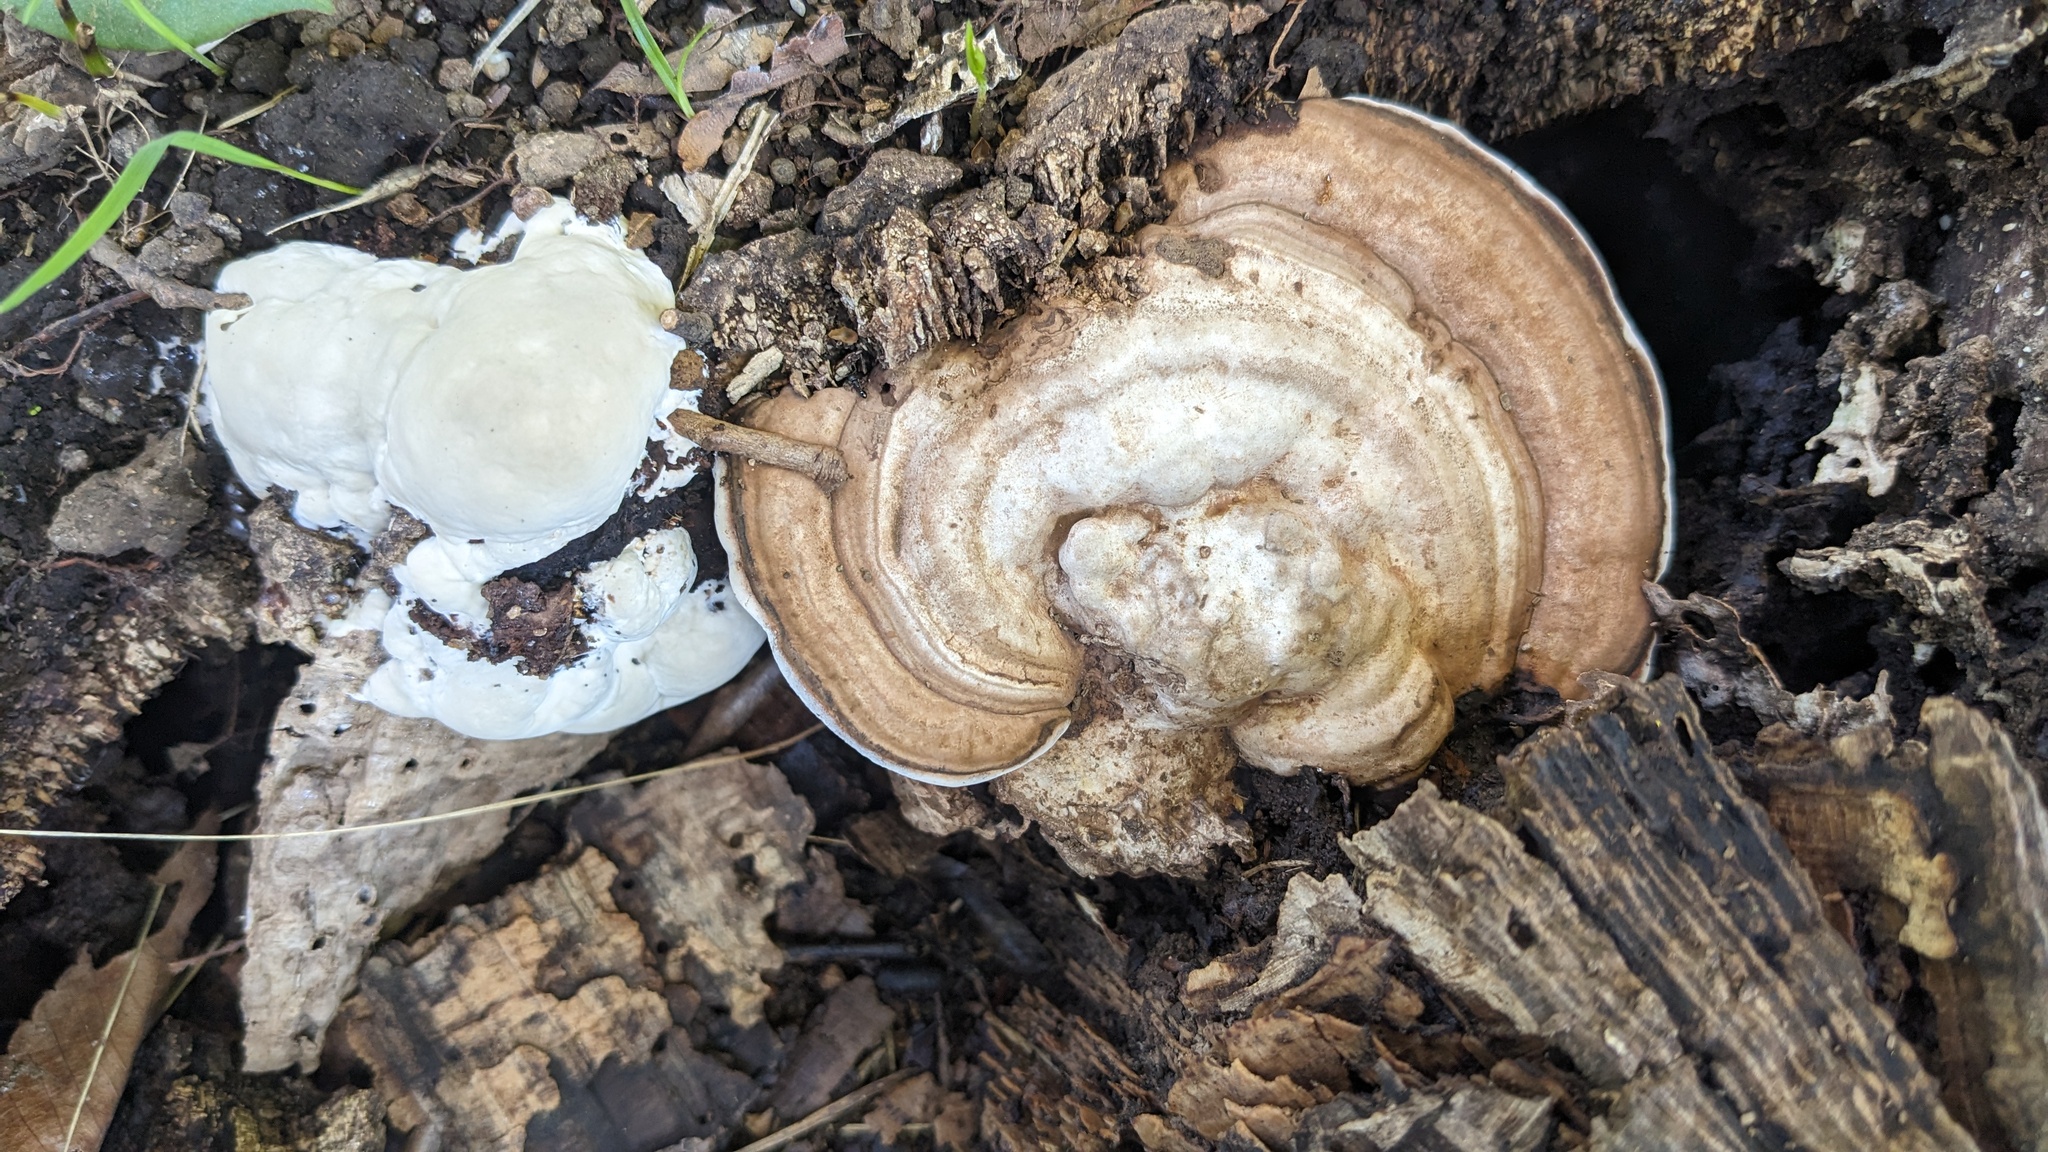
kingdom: Fungi
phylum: Basidiomycota
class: Agaricomycetes
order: Polyporales
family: Polyporaceae
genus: Ganoderma
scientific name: Ganoderma applanatum
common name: Artist's bracket
